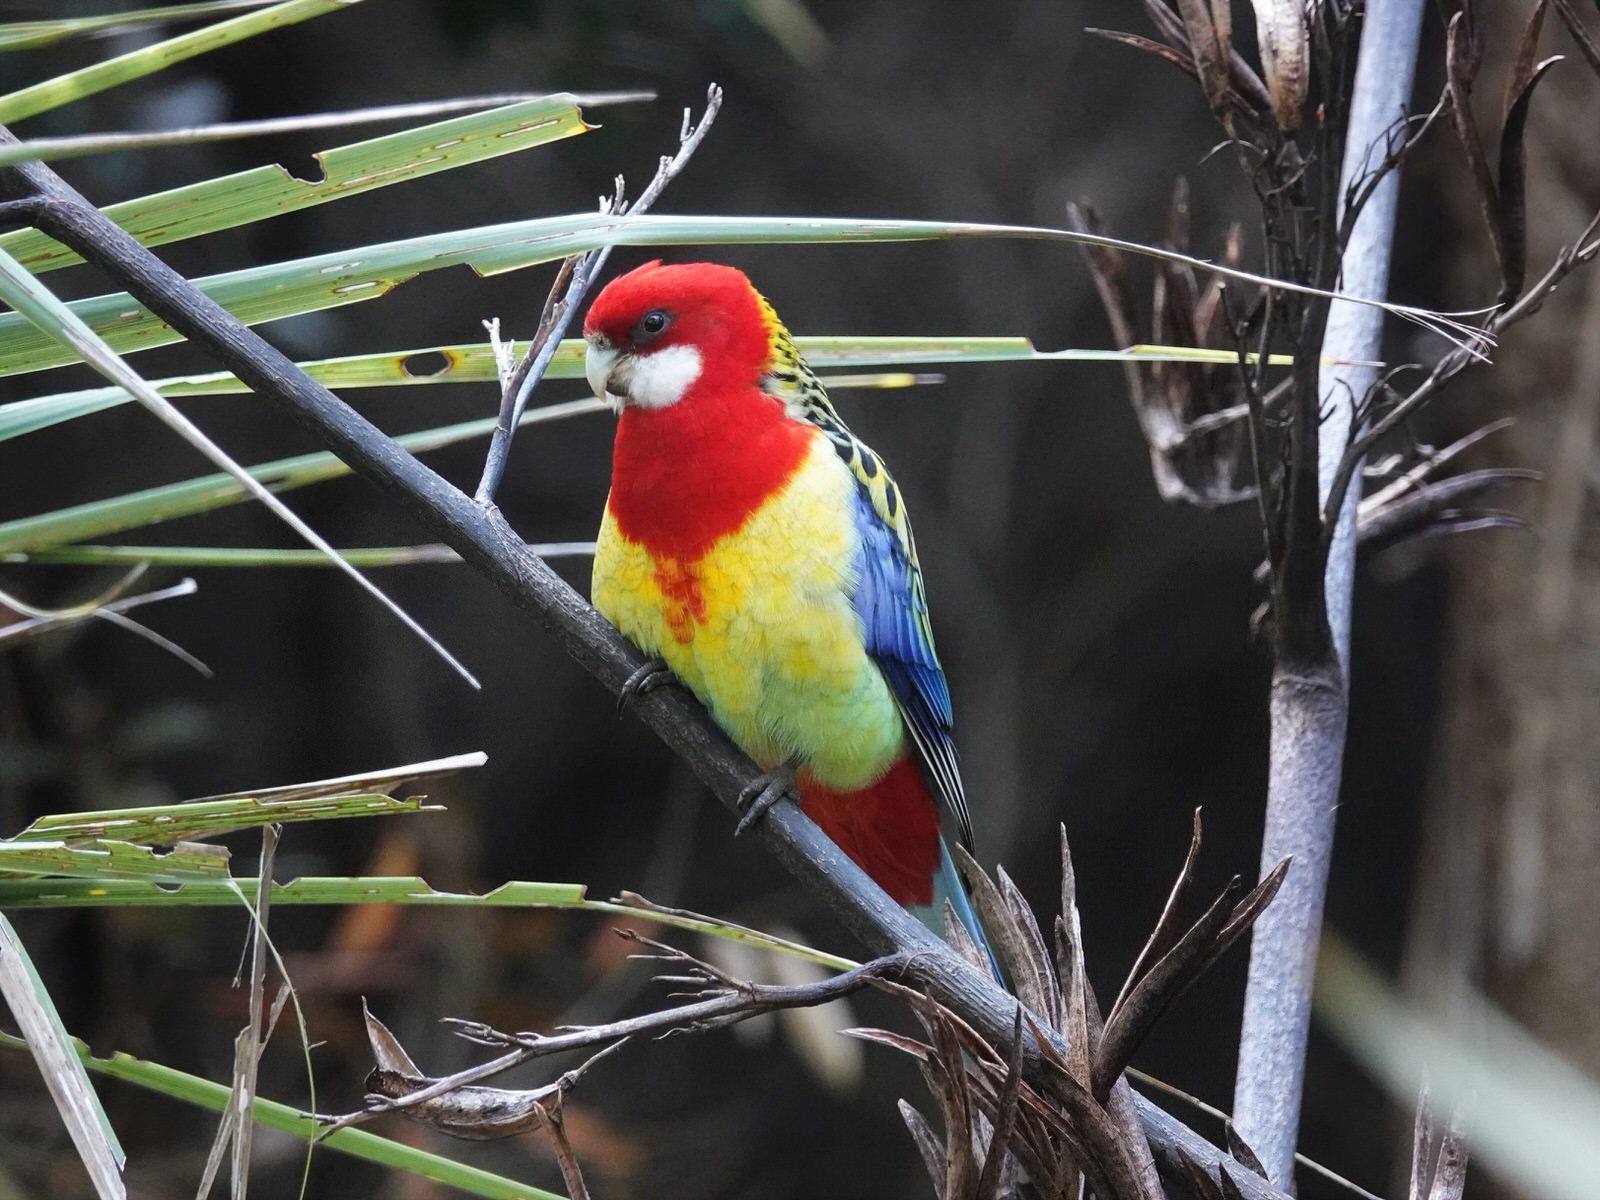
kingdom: Animalia
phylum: Chordata
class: Aves
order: Psittaciformes
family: Psittacidae
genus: Platycercus
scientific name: Platycercus eximius
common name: Eastern rosella
